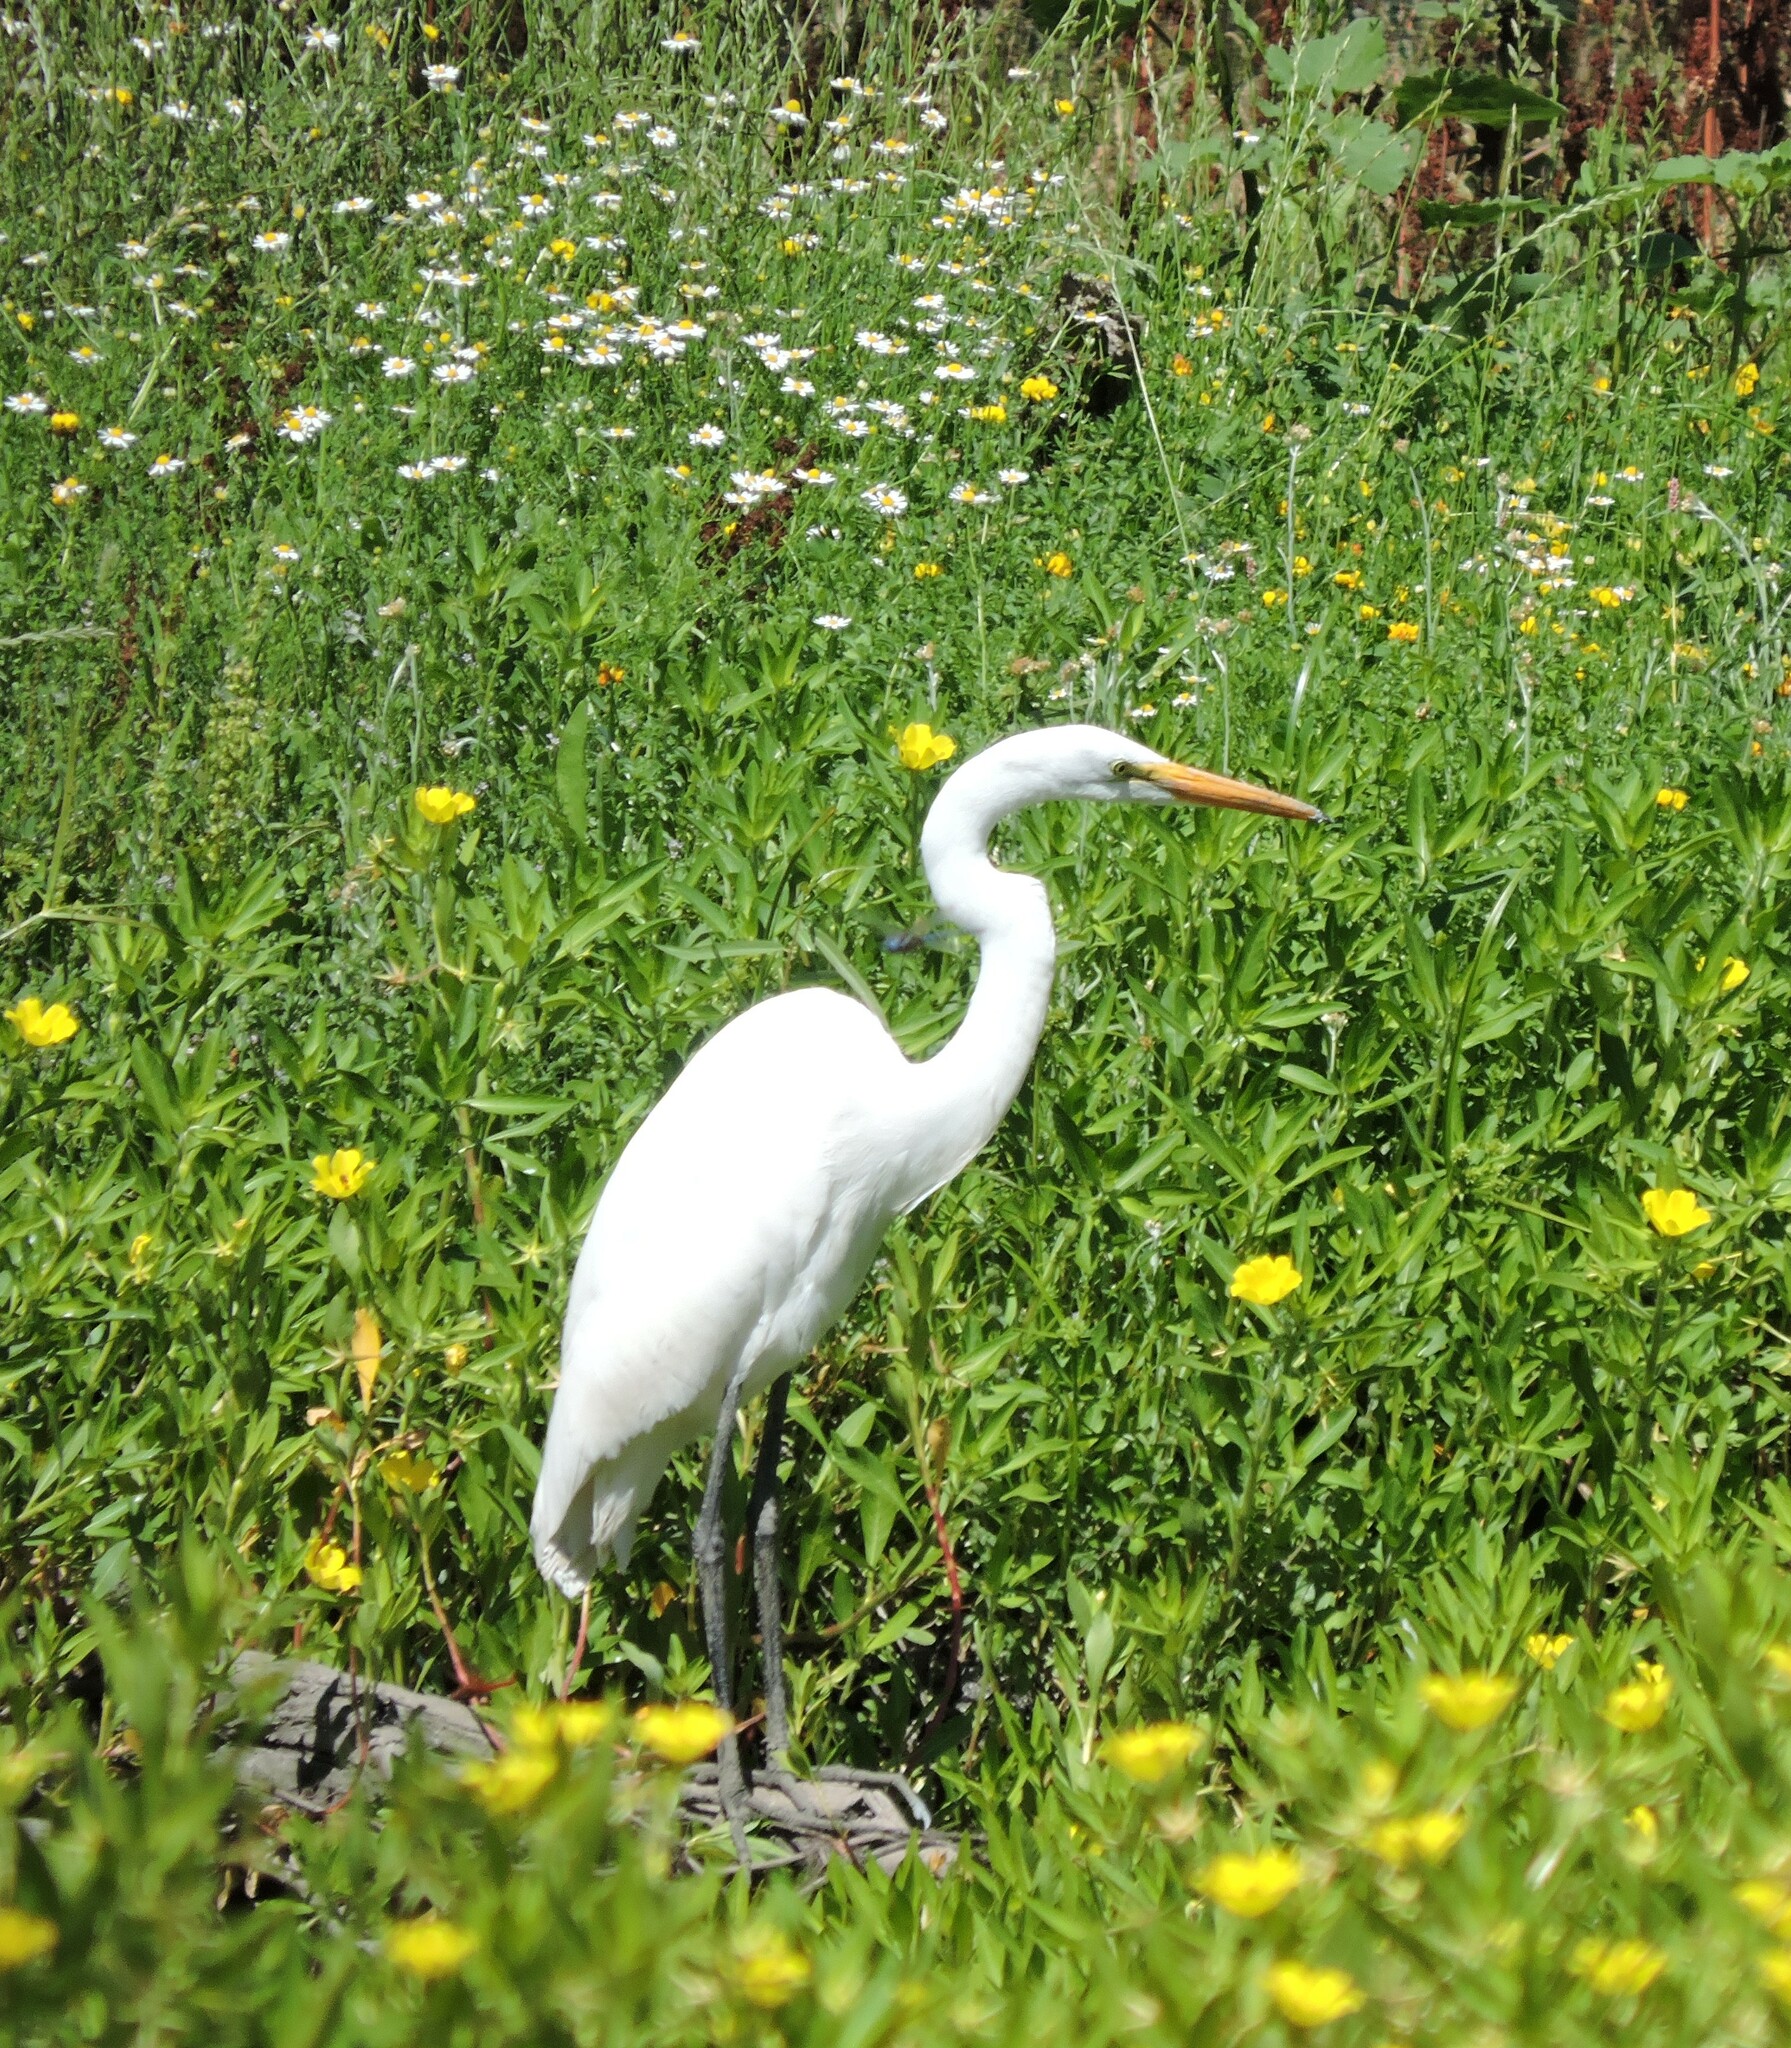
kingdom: Animalia
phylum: Chordata
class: Aves
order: Pelecaniformes
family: Ardeidae
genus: Ardea
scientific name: Ardea alba
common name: Great egret
